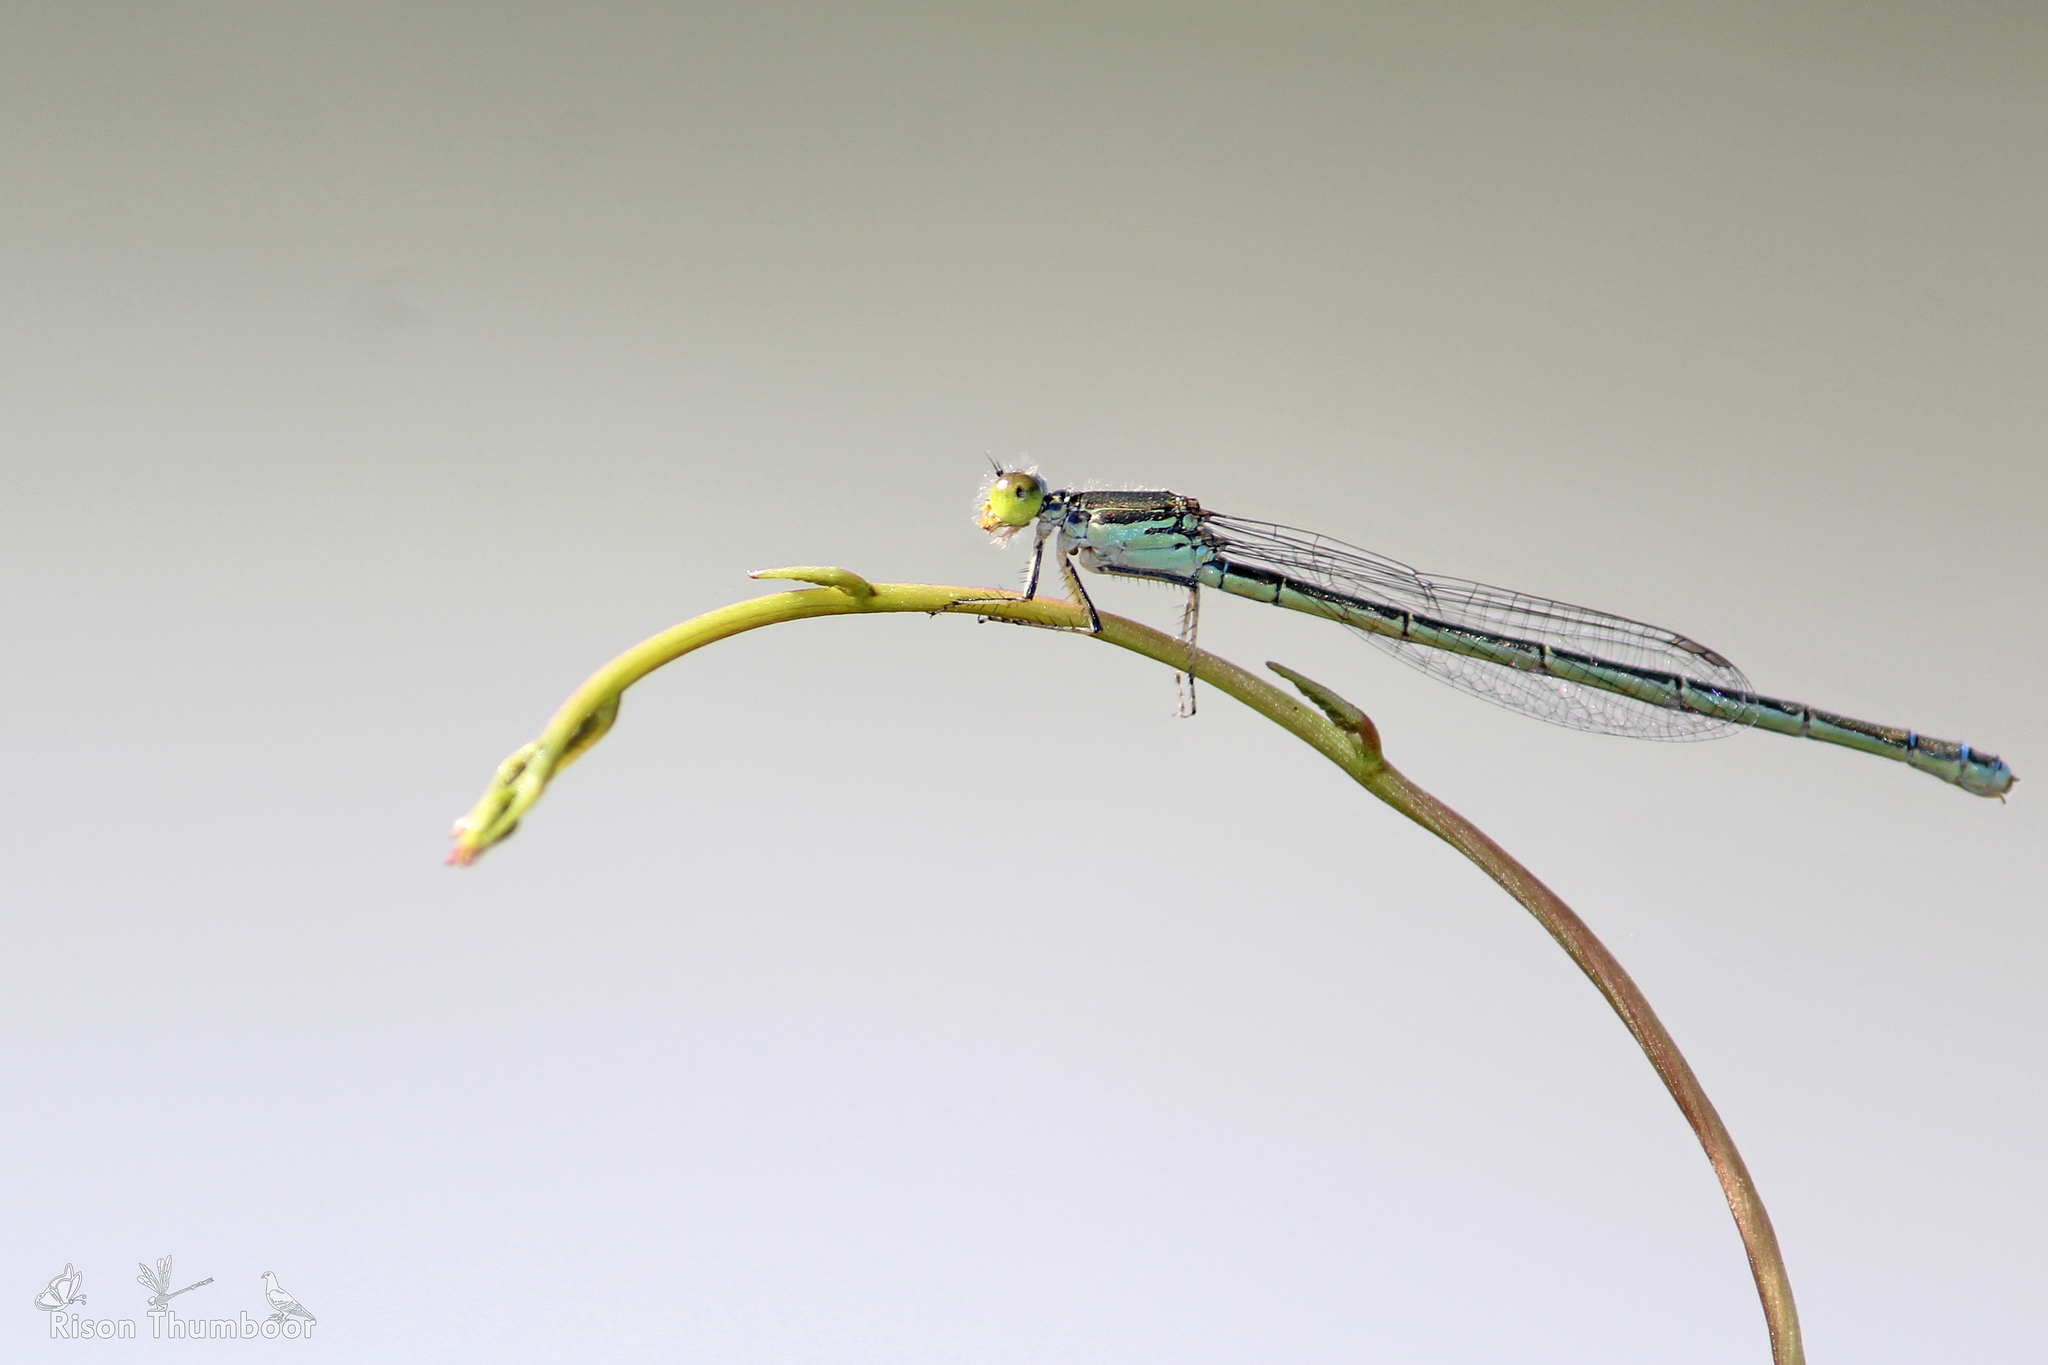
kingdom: Animalia
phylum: Arthropoda
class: Insecta
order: Odonata
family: Coenagrionidae
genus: Paracercion
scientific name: Paracercion calamorum
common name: Dusky lilysquatter
